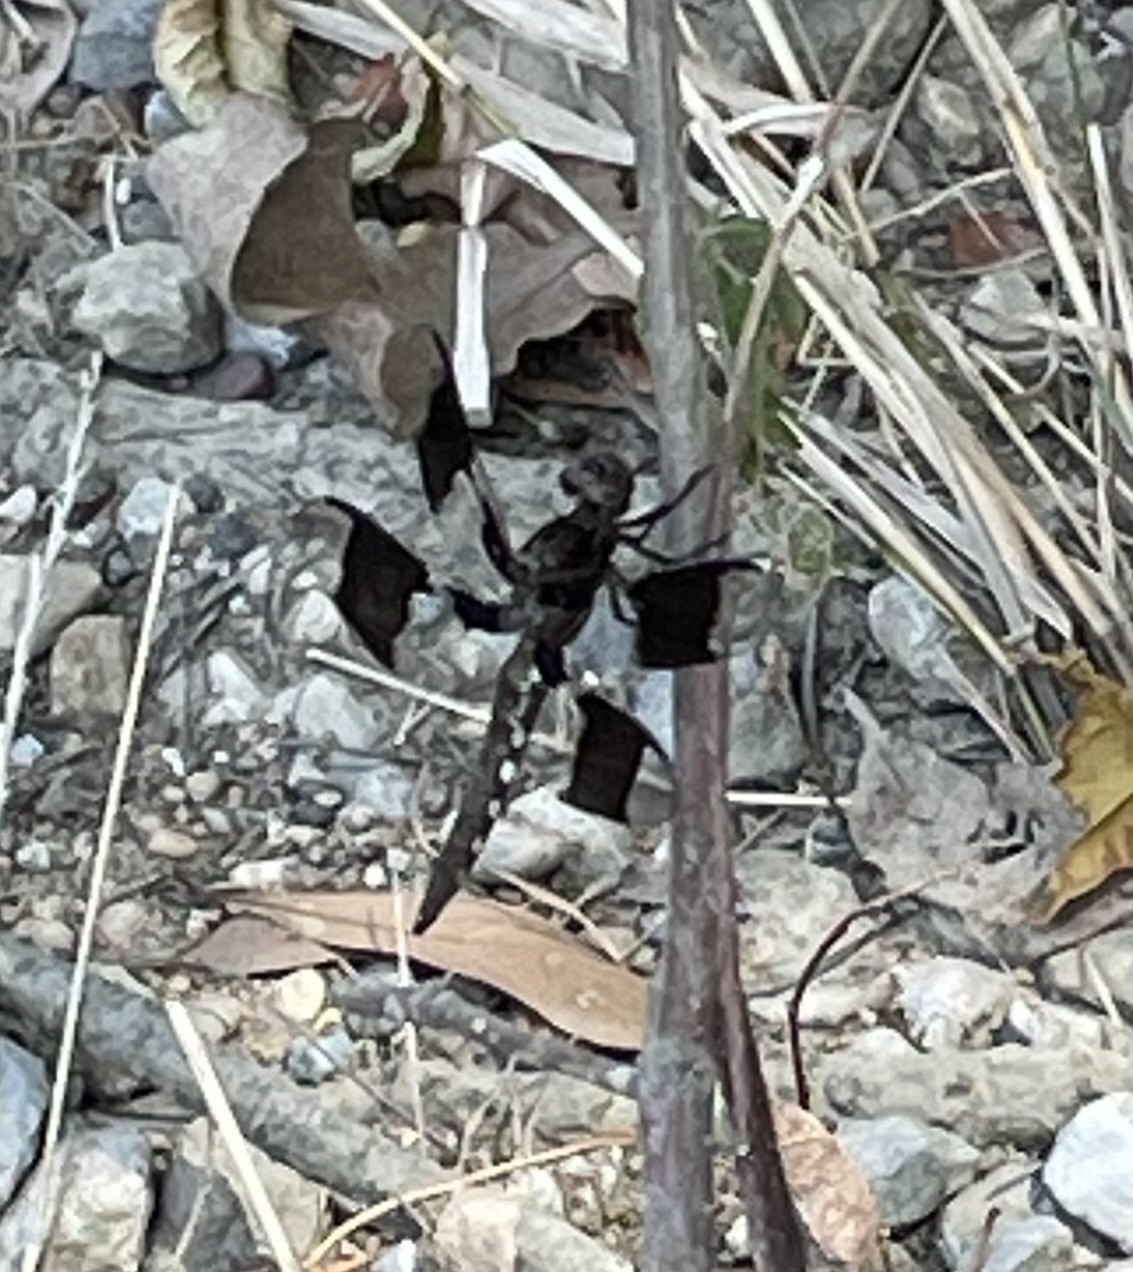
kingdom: Animalia
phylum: Arthropoda
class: Insecta
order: Odonata
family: Libellulidae
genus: Plathemis
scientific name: Plathemis lydia
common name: Common whitetail
